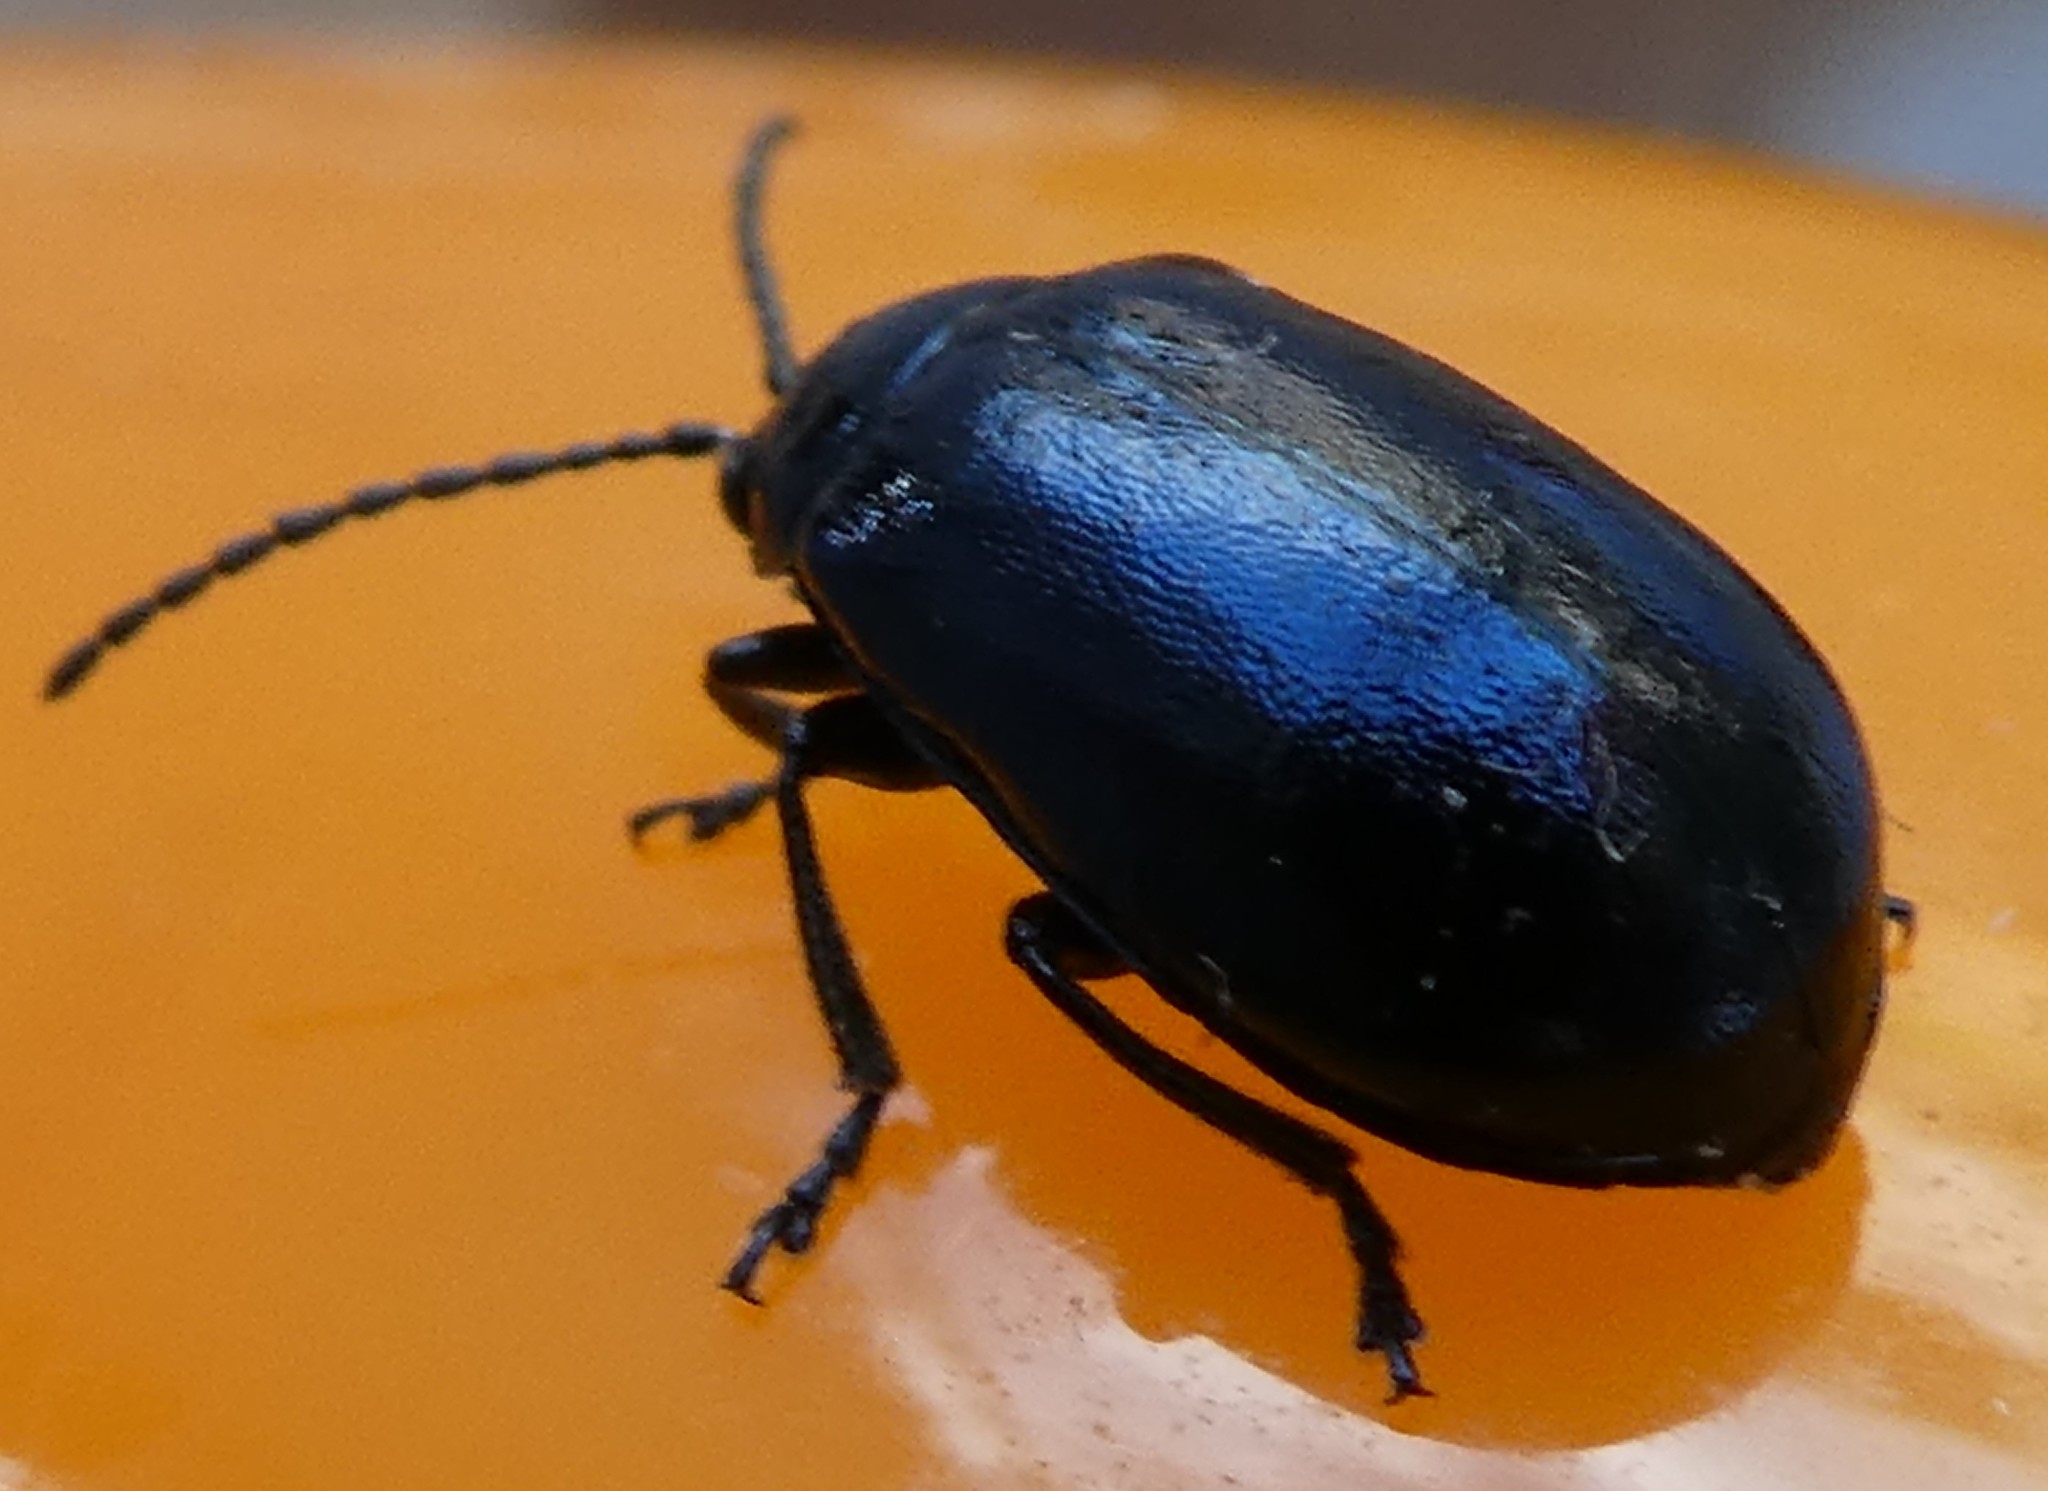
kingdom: Animalia
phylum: Arthropoda
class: Insecta
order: Coleoptera
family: Chrysomelidae
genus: Agelastica
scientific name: Agelastica alni
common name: Alder leaf beetle
